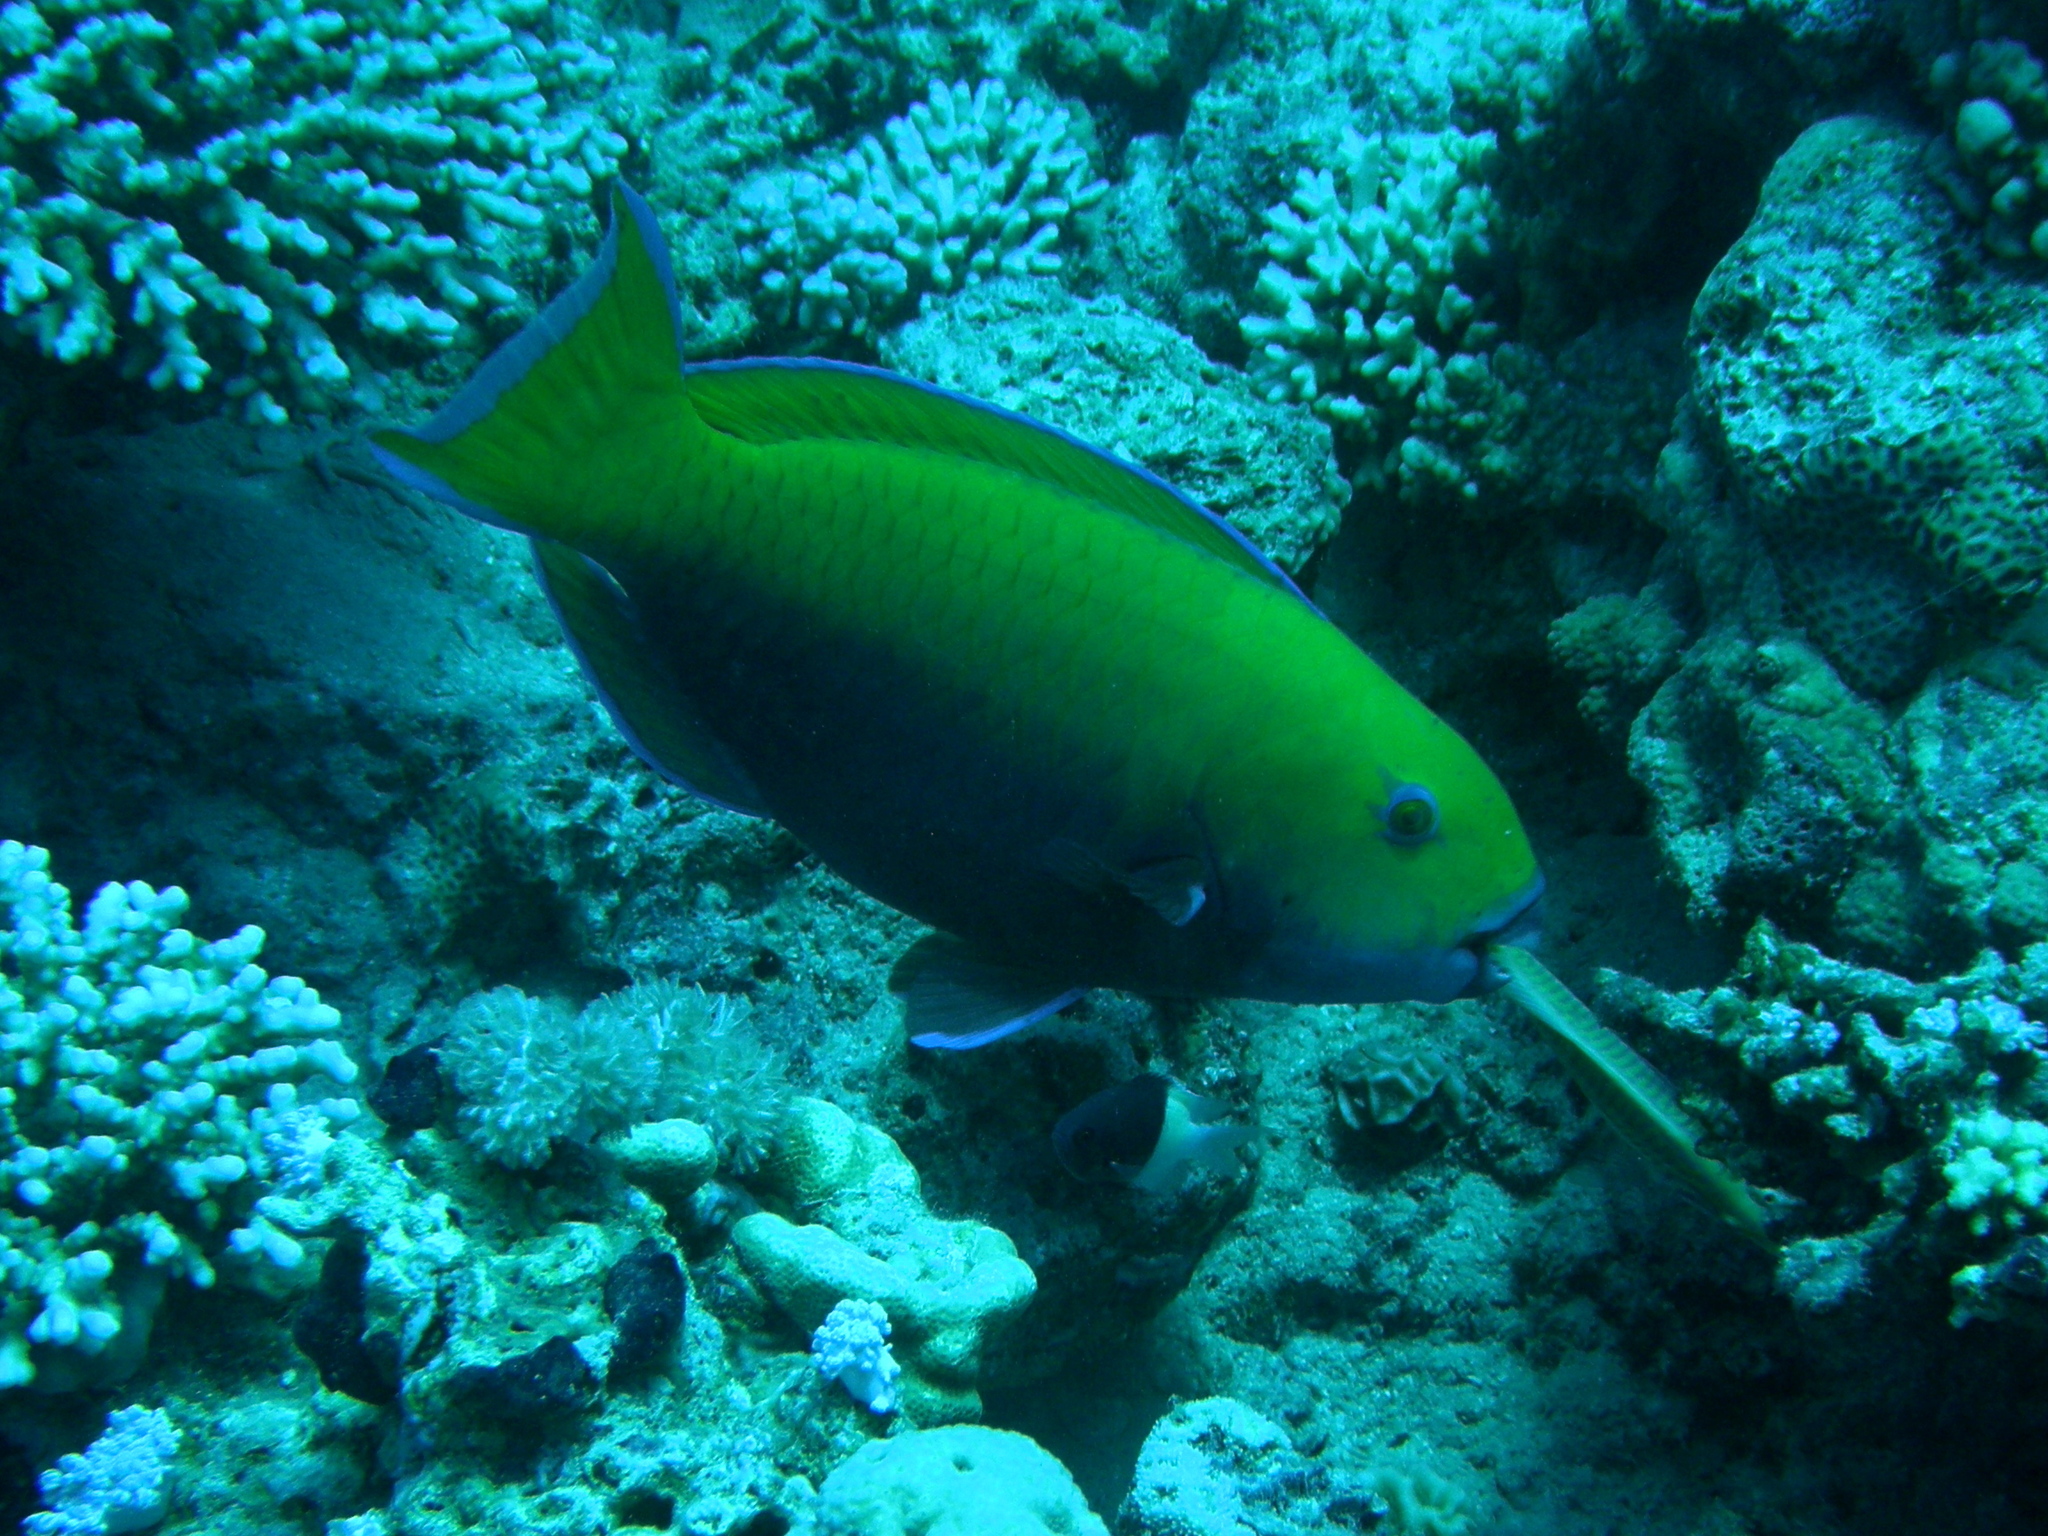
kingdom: Animalia
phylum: Chordata
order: Perciformes
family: Scaridae
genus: Chlorurus
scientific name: Chlorurus gibbus
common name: Heavybeak parrotfish
